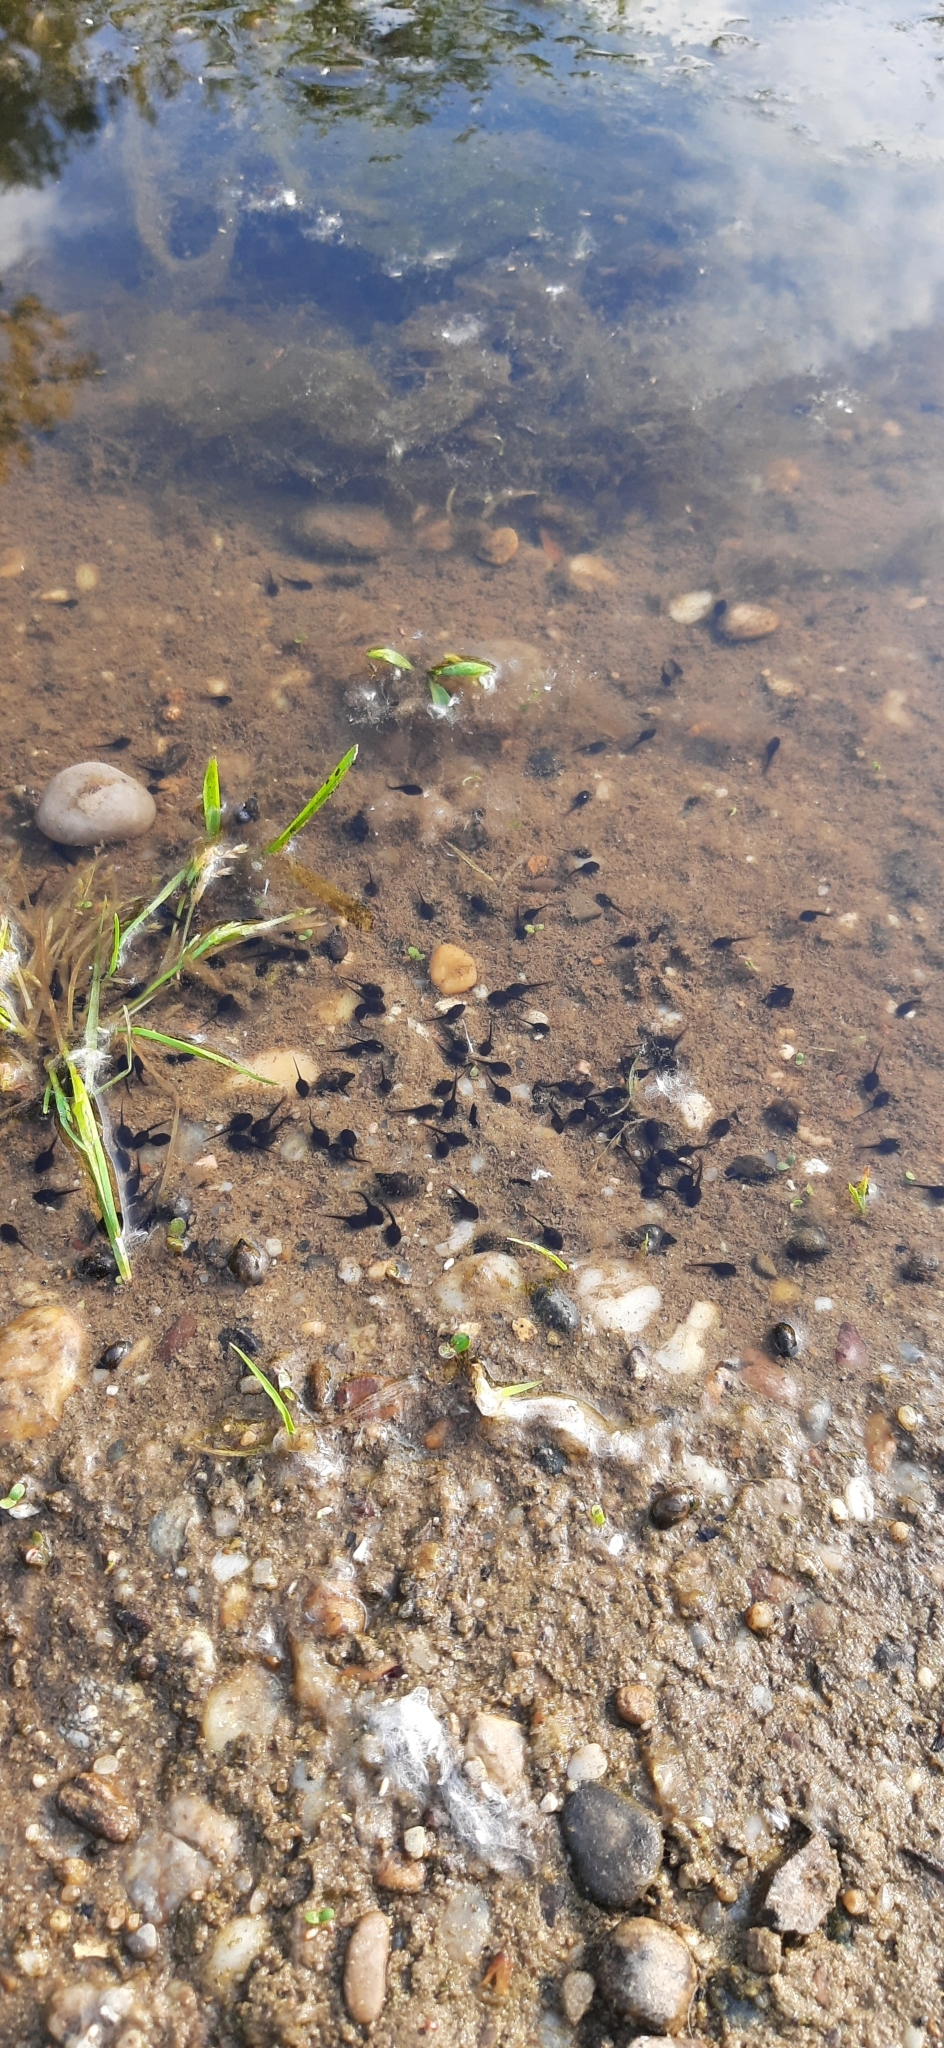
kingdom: Animalia
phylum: Chordata
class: Amphibia
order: Anura
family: Bufonidae
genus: Bufotes
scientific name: Bufotes viridis
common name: European green toad
